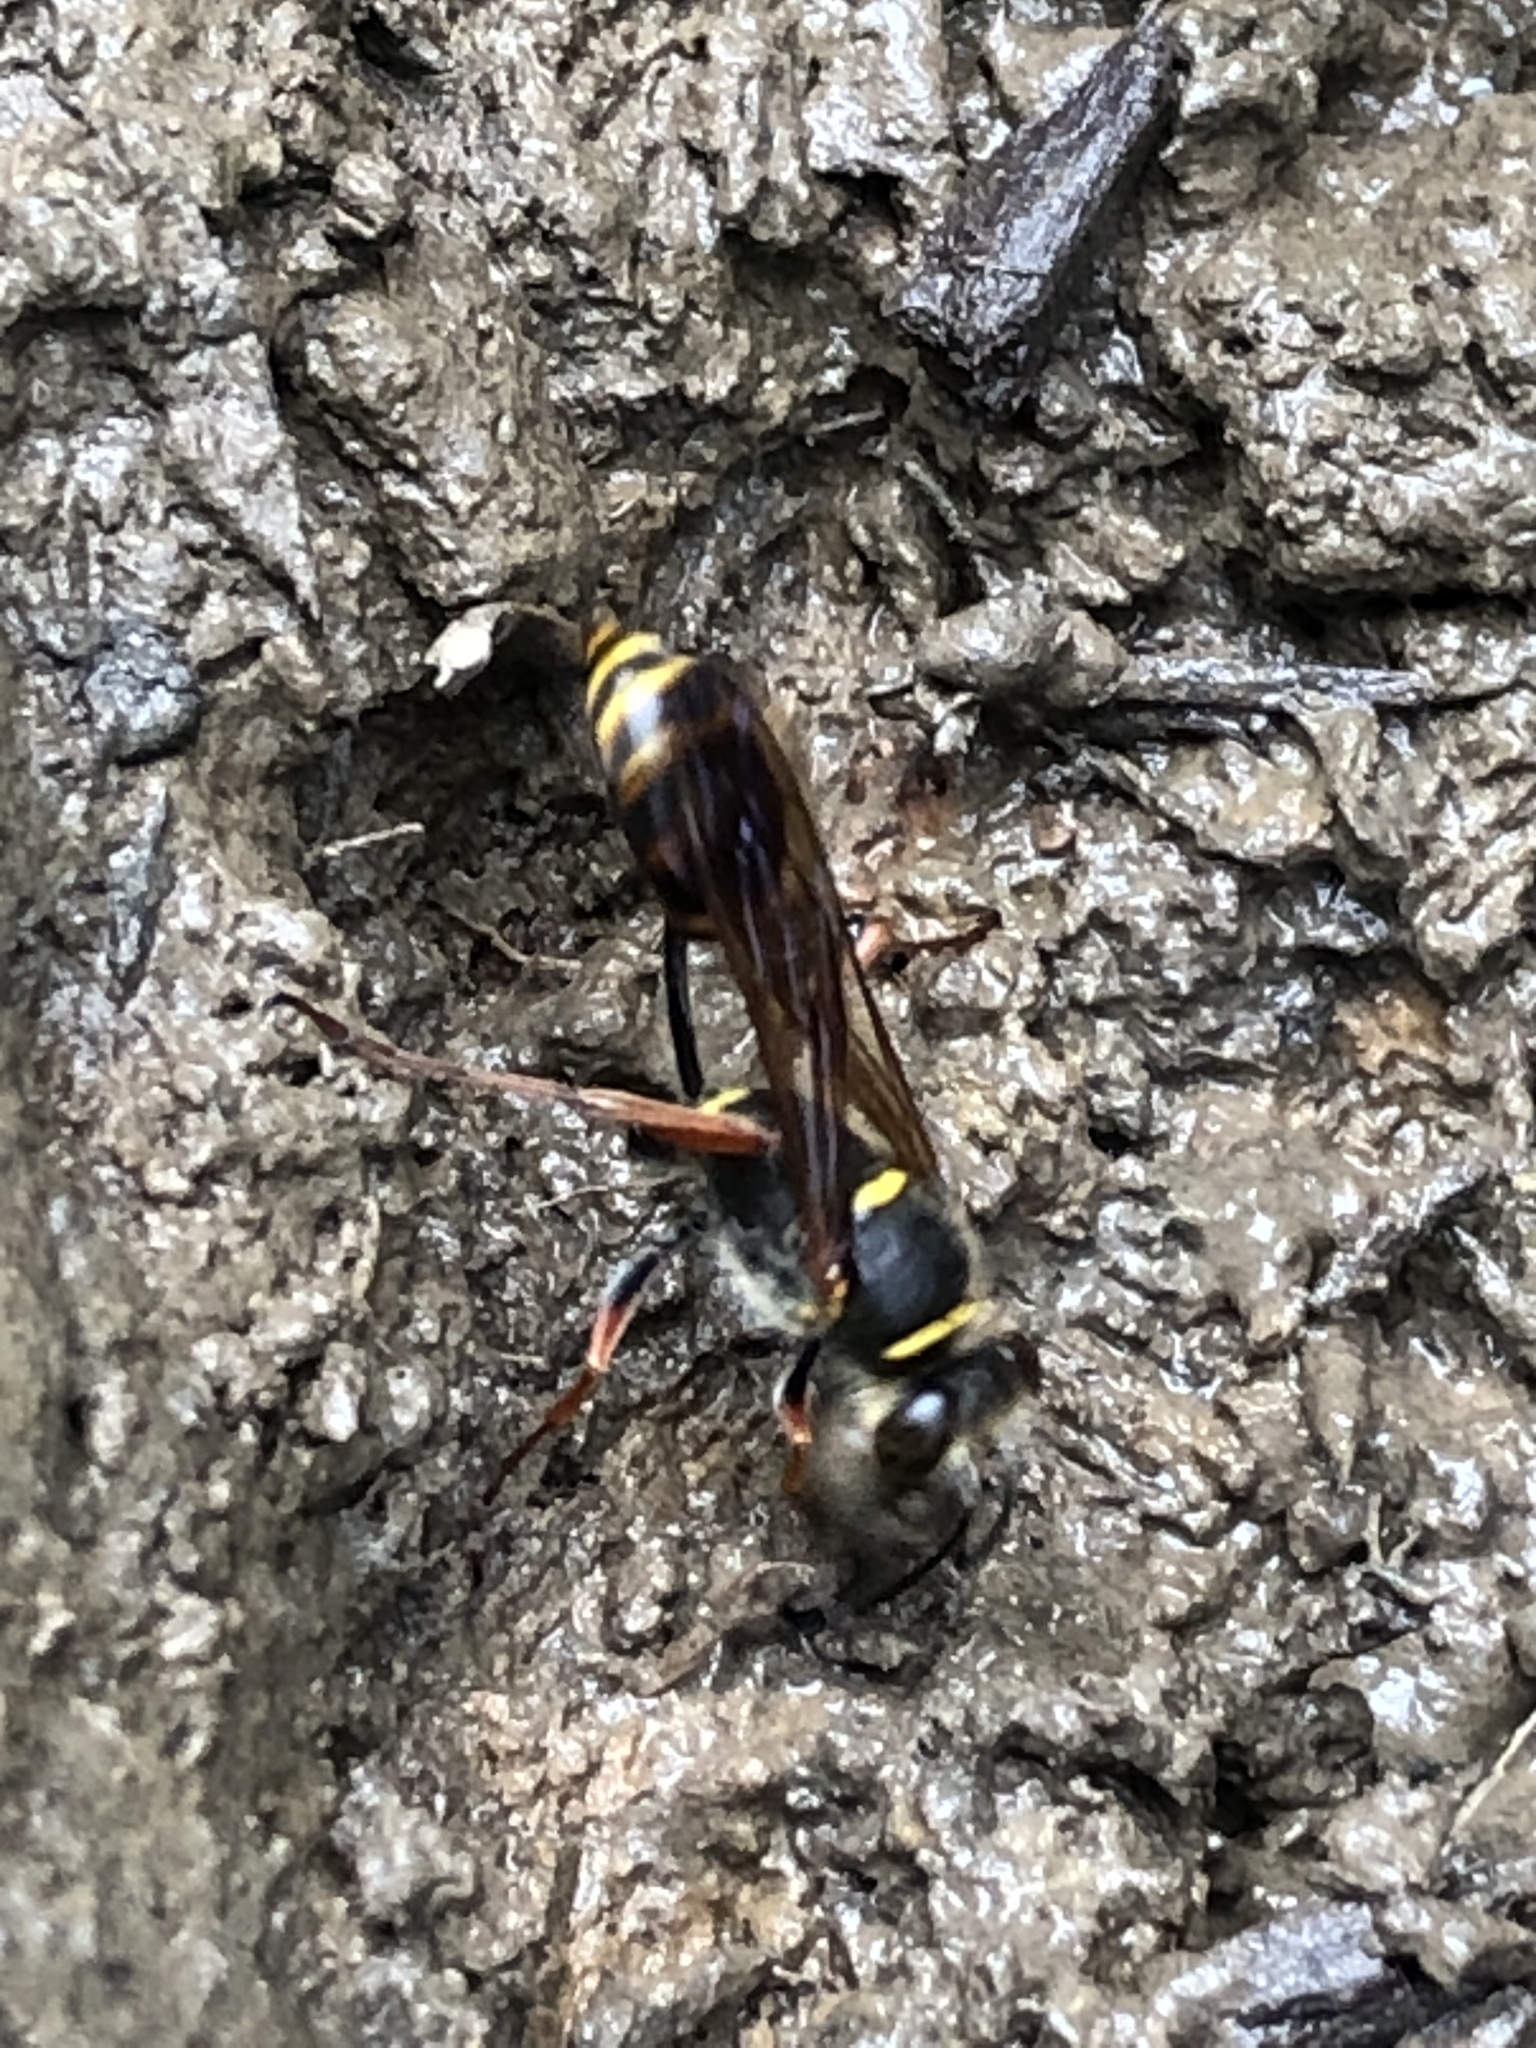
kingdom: Animalia
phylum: Arthropoda
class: Insecta
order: Hymenoptera
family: Sphecidae
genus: Sceliphron
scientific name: Sceliphron curvatum
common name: Pèlopèe
